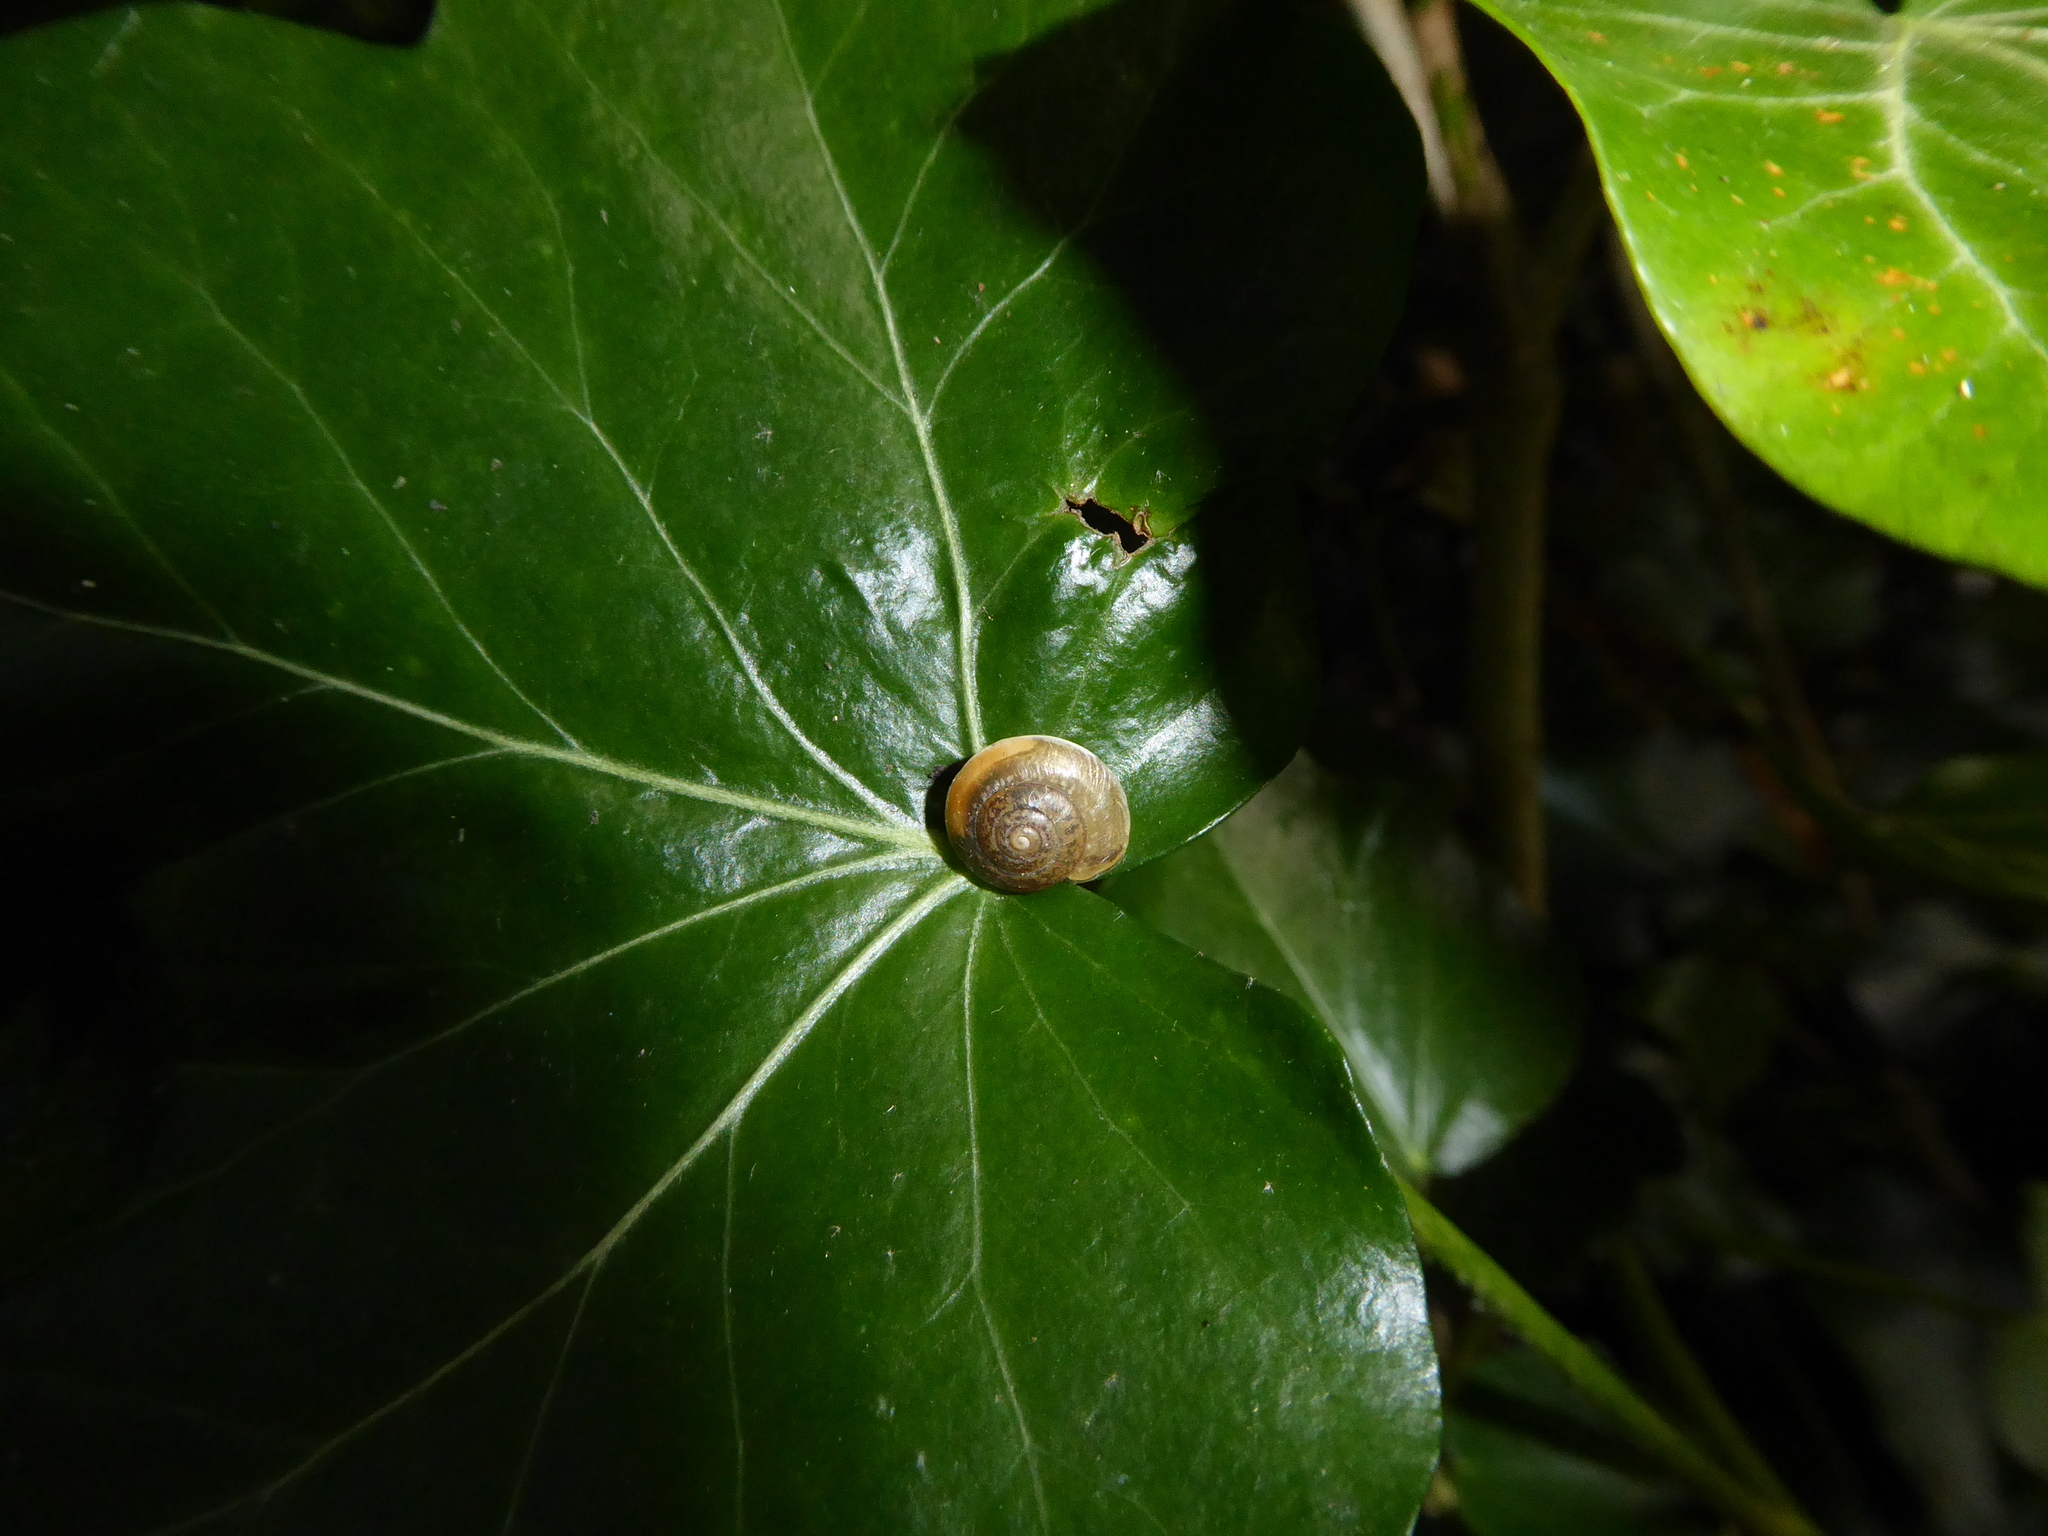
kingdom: Animalia
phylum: Mollusca
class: Gastropoda
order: Stylommatophora
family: Hygromiidae
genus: Hygromia
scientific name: Hygromia cinctella
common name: Girdled snail
